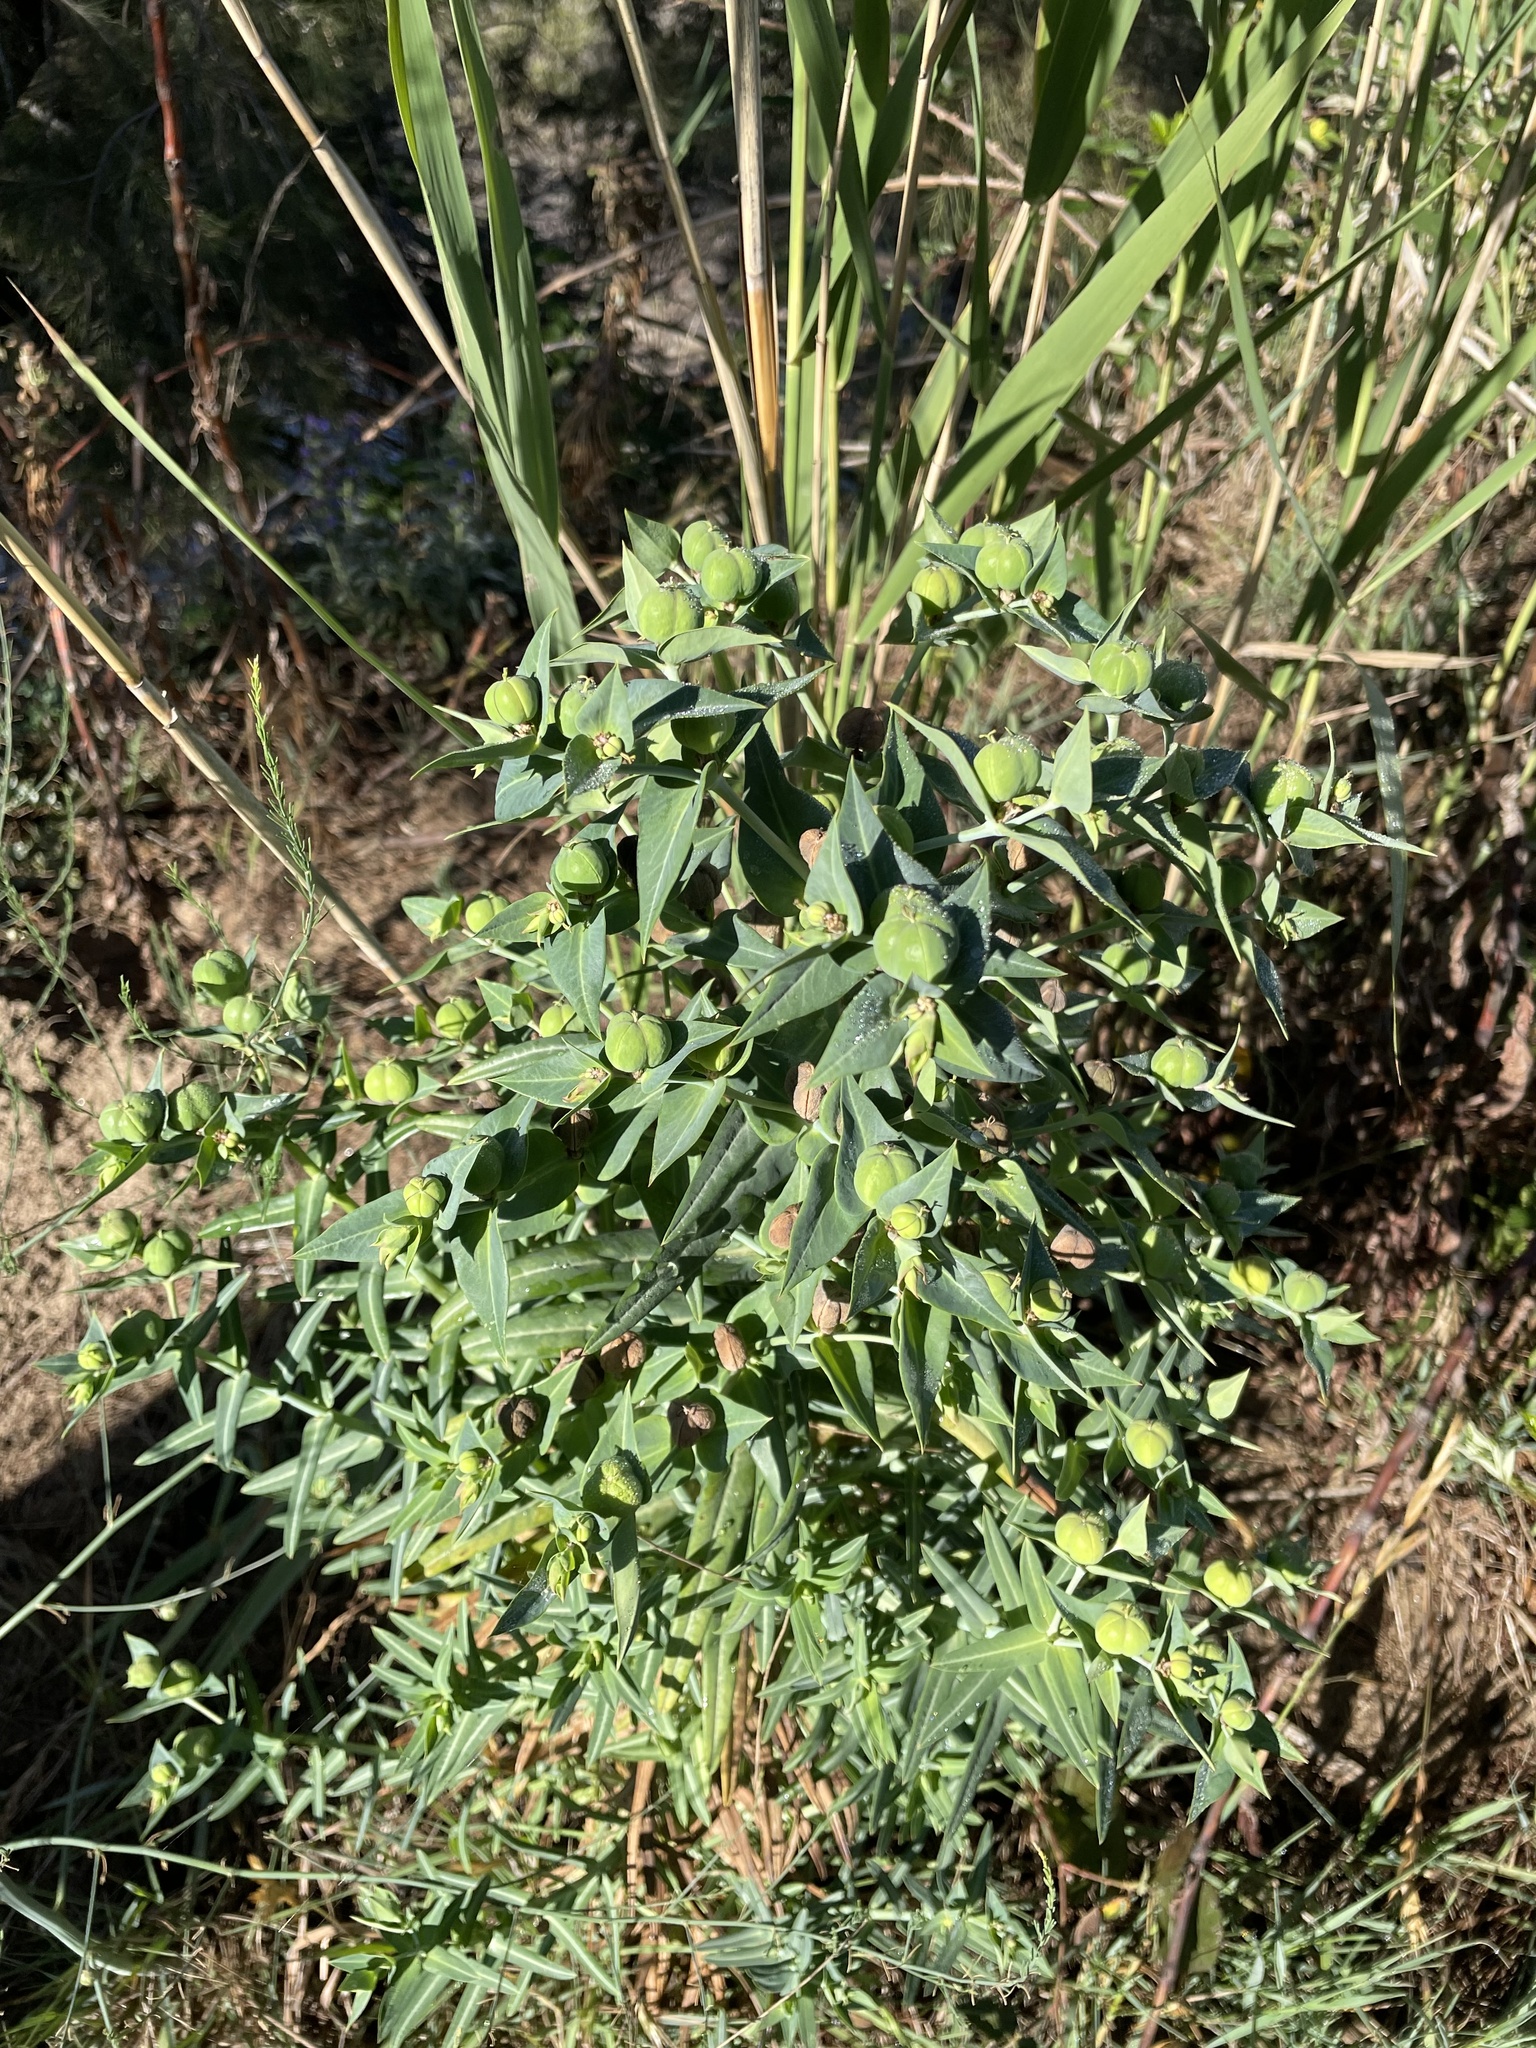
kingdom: Plantae
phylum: Tracheophyta
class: Magnoliopsida
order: Malpighiales
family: Euphorbiaceae
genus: Euphorbia
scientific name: Euphorbia lathyris
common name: Caper spurge
